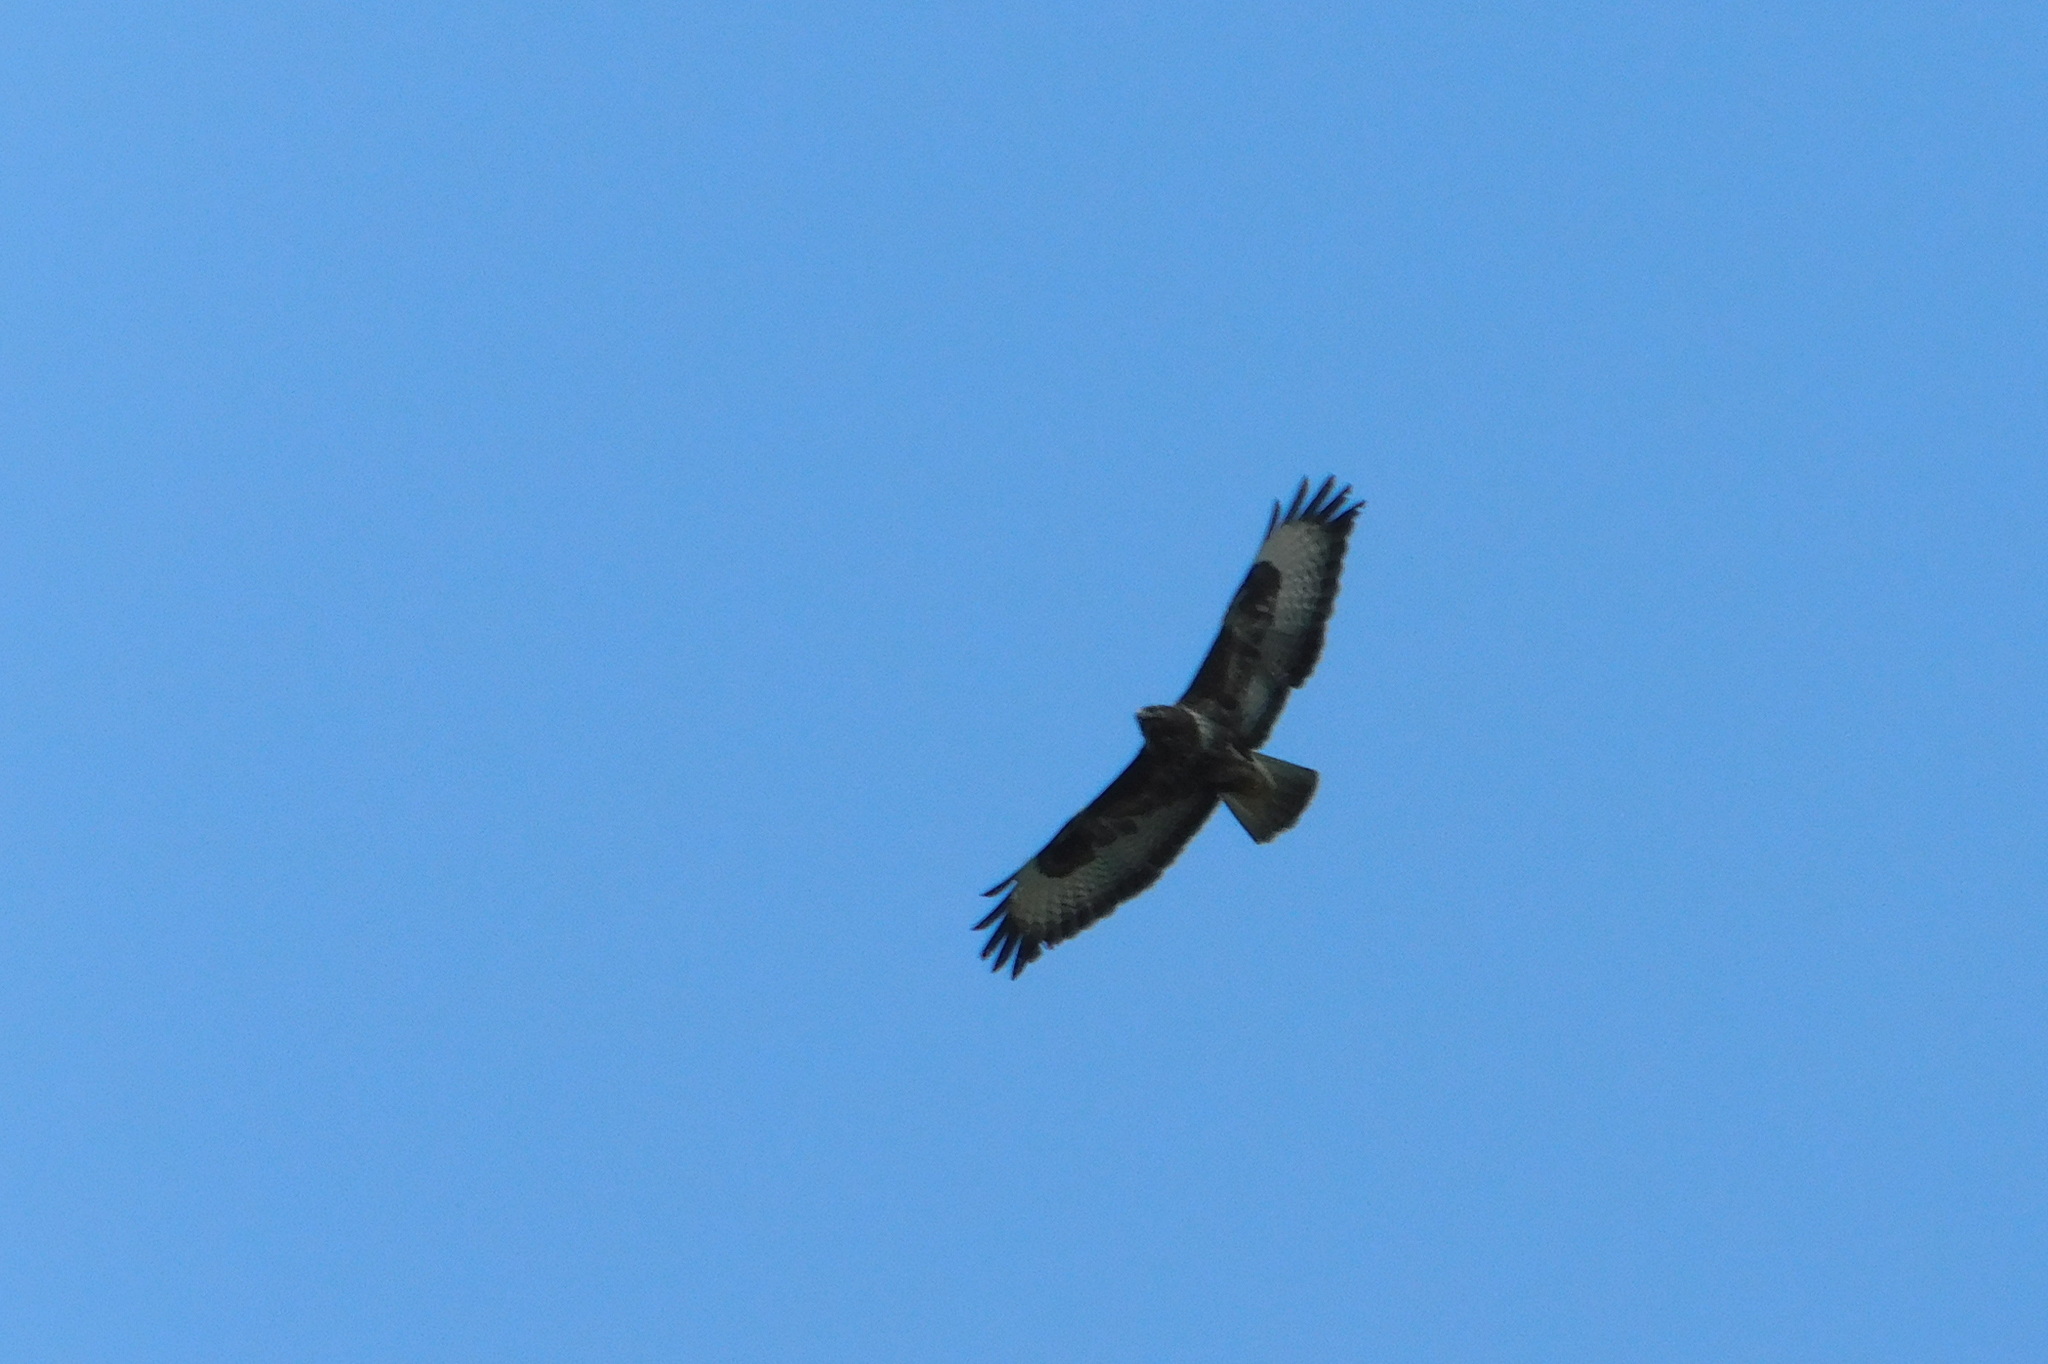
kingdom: Animalia
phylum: Chordata
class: Aves
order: Accipitriformes
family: Accipitridae
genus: Buteo
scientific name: Buteo buteo
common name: Common buzzard
